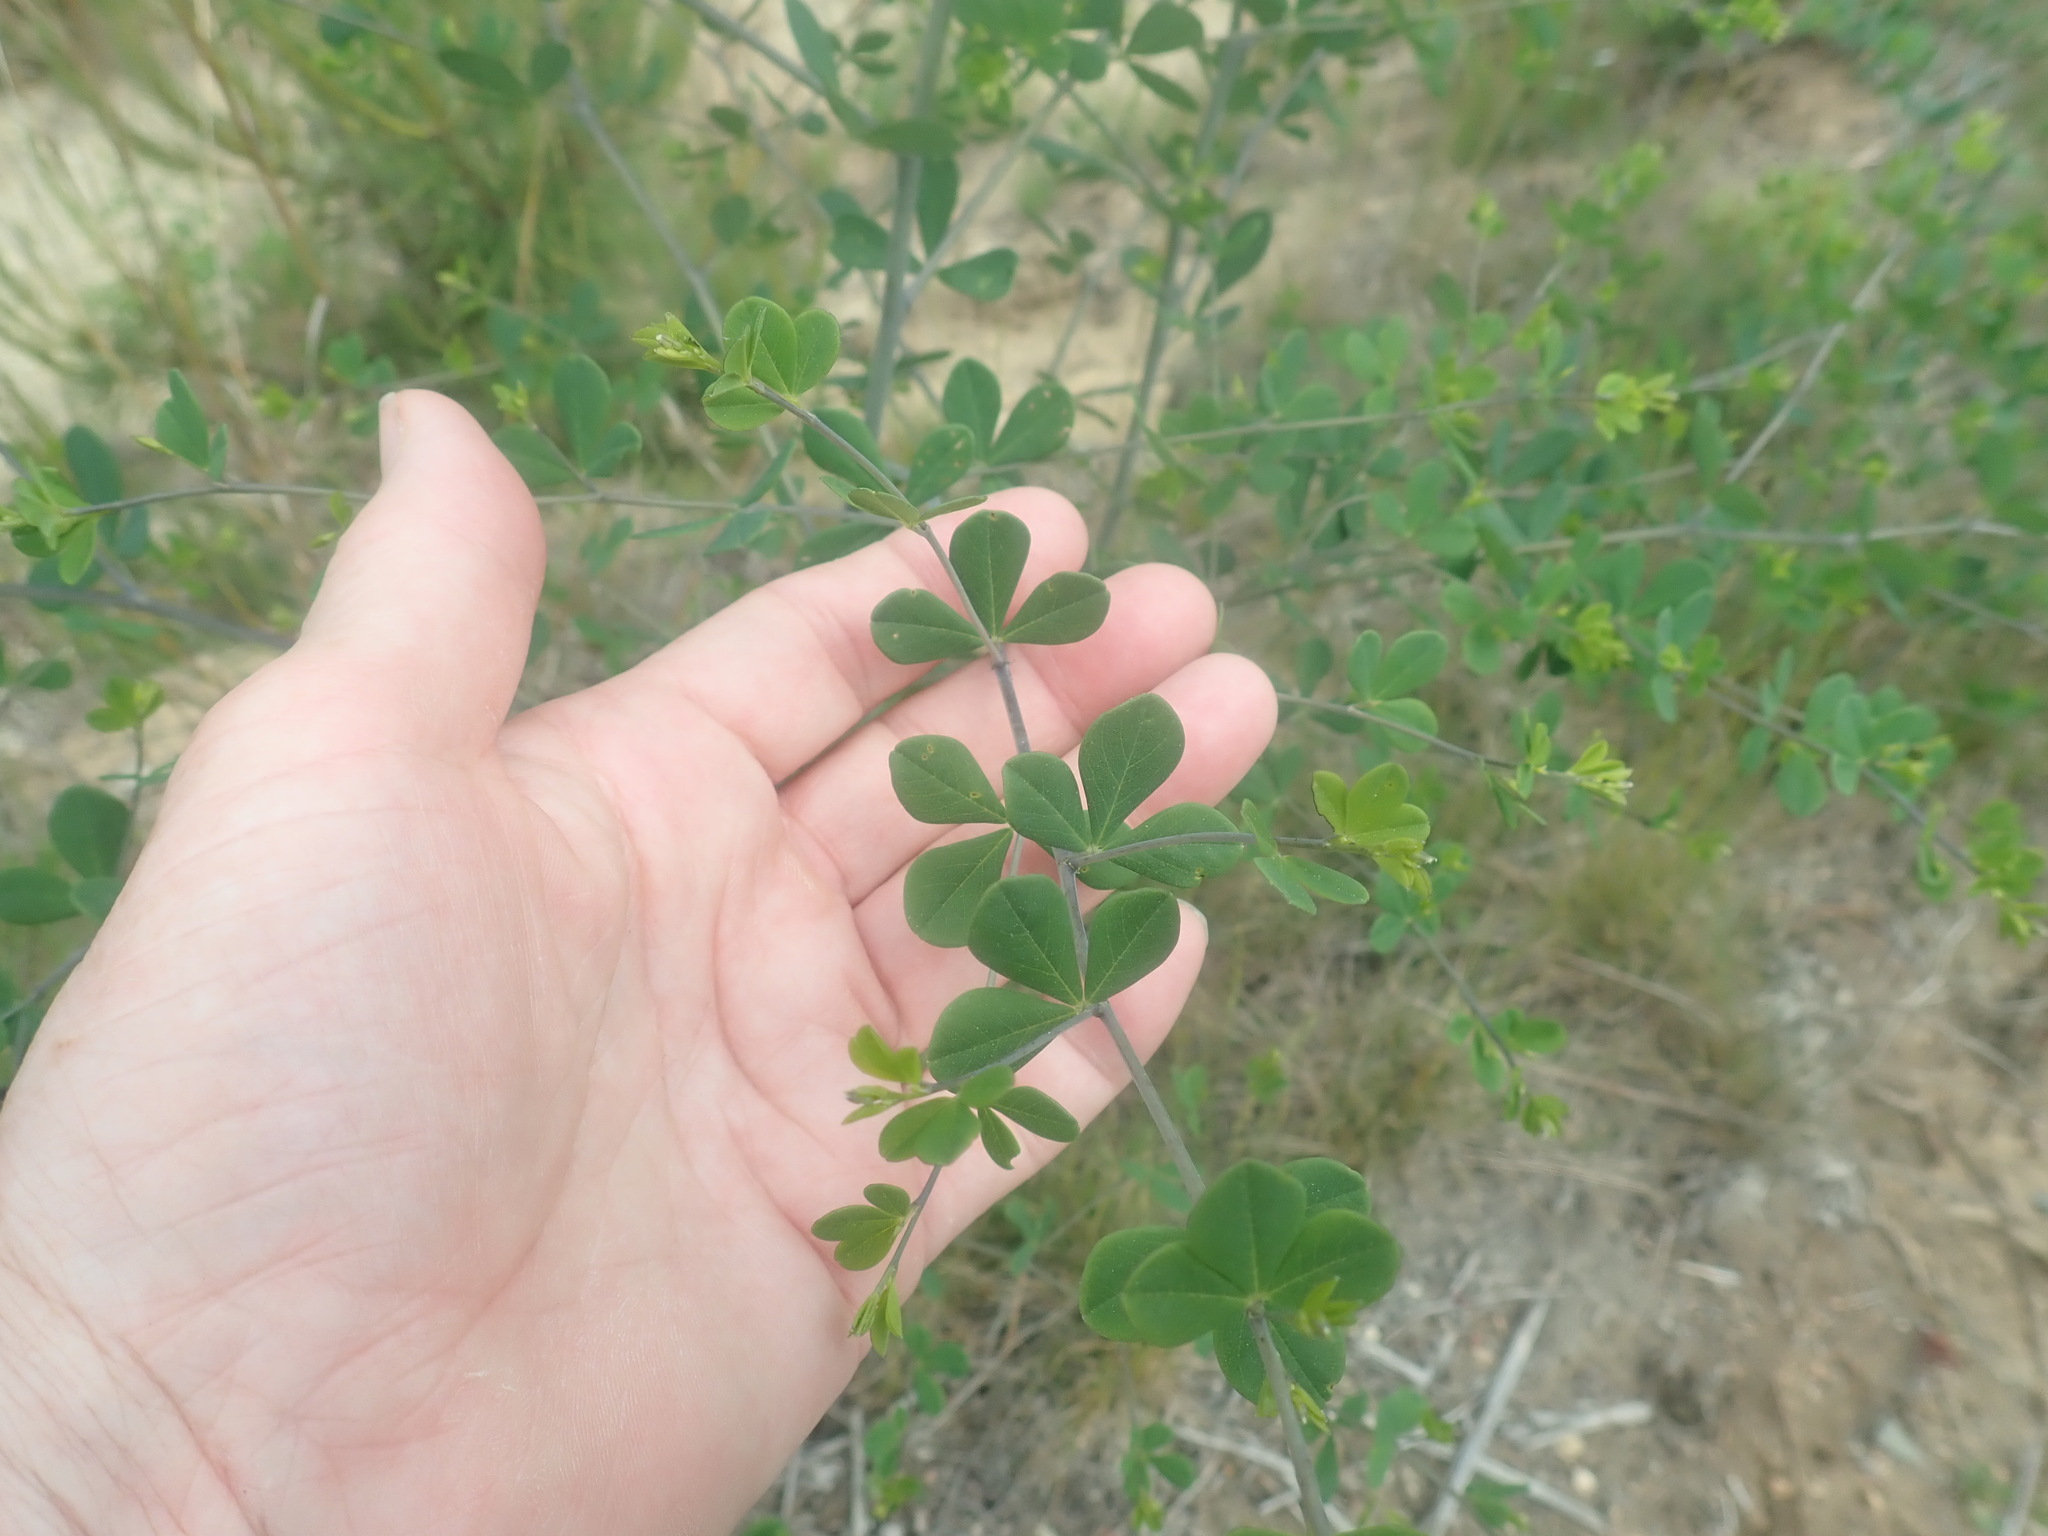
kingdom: Plantae
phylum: Tracheophyta
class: Magnoliopsida
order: Fabales
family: Fabaceae
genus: Baptisia
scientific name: Baptisia tinctoria
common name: Wild indigo
